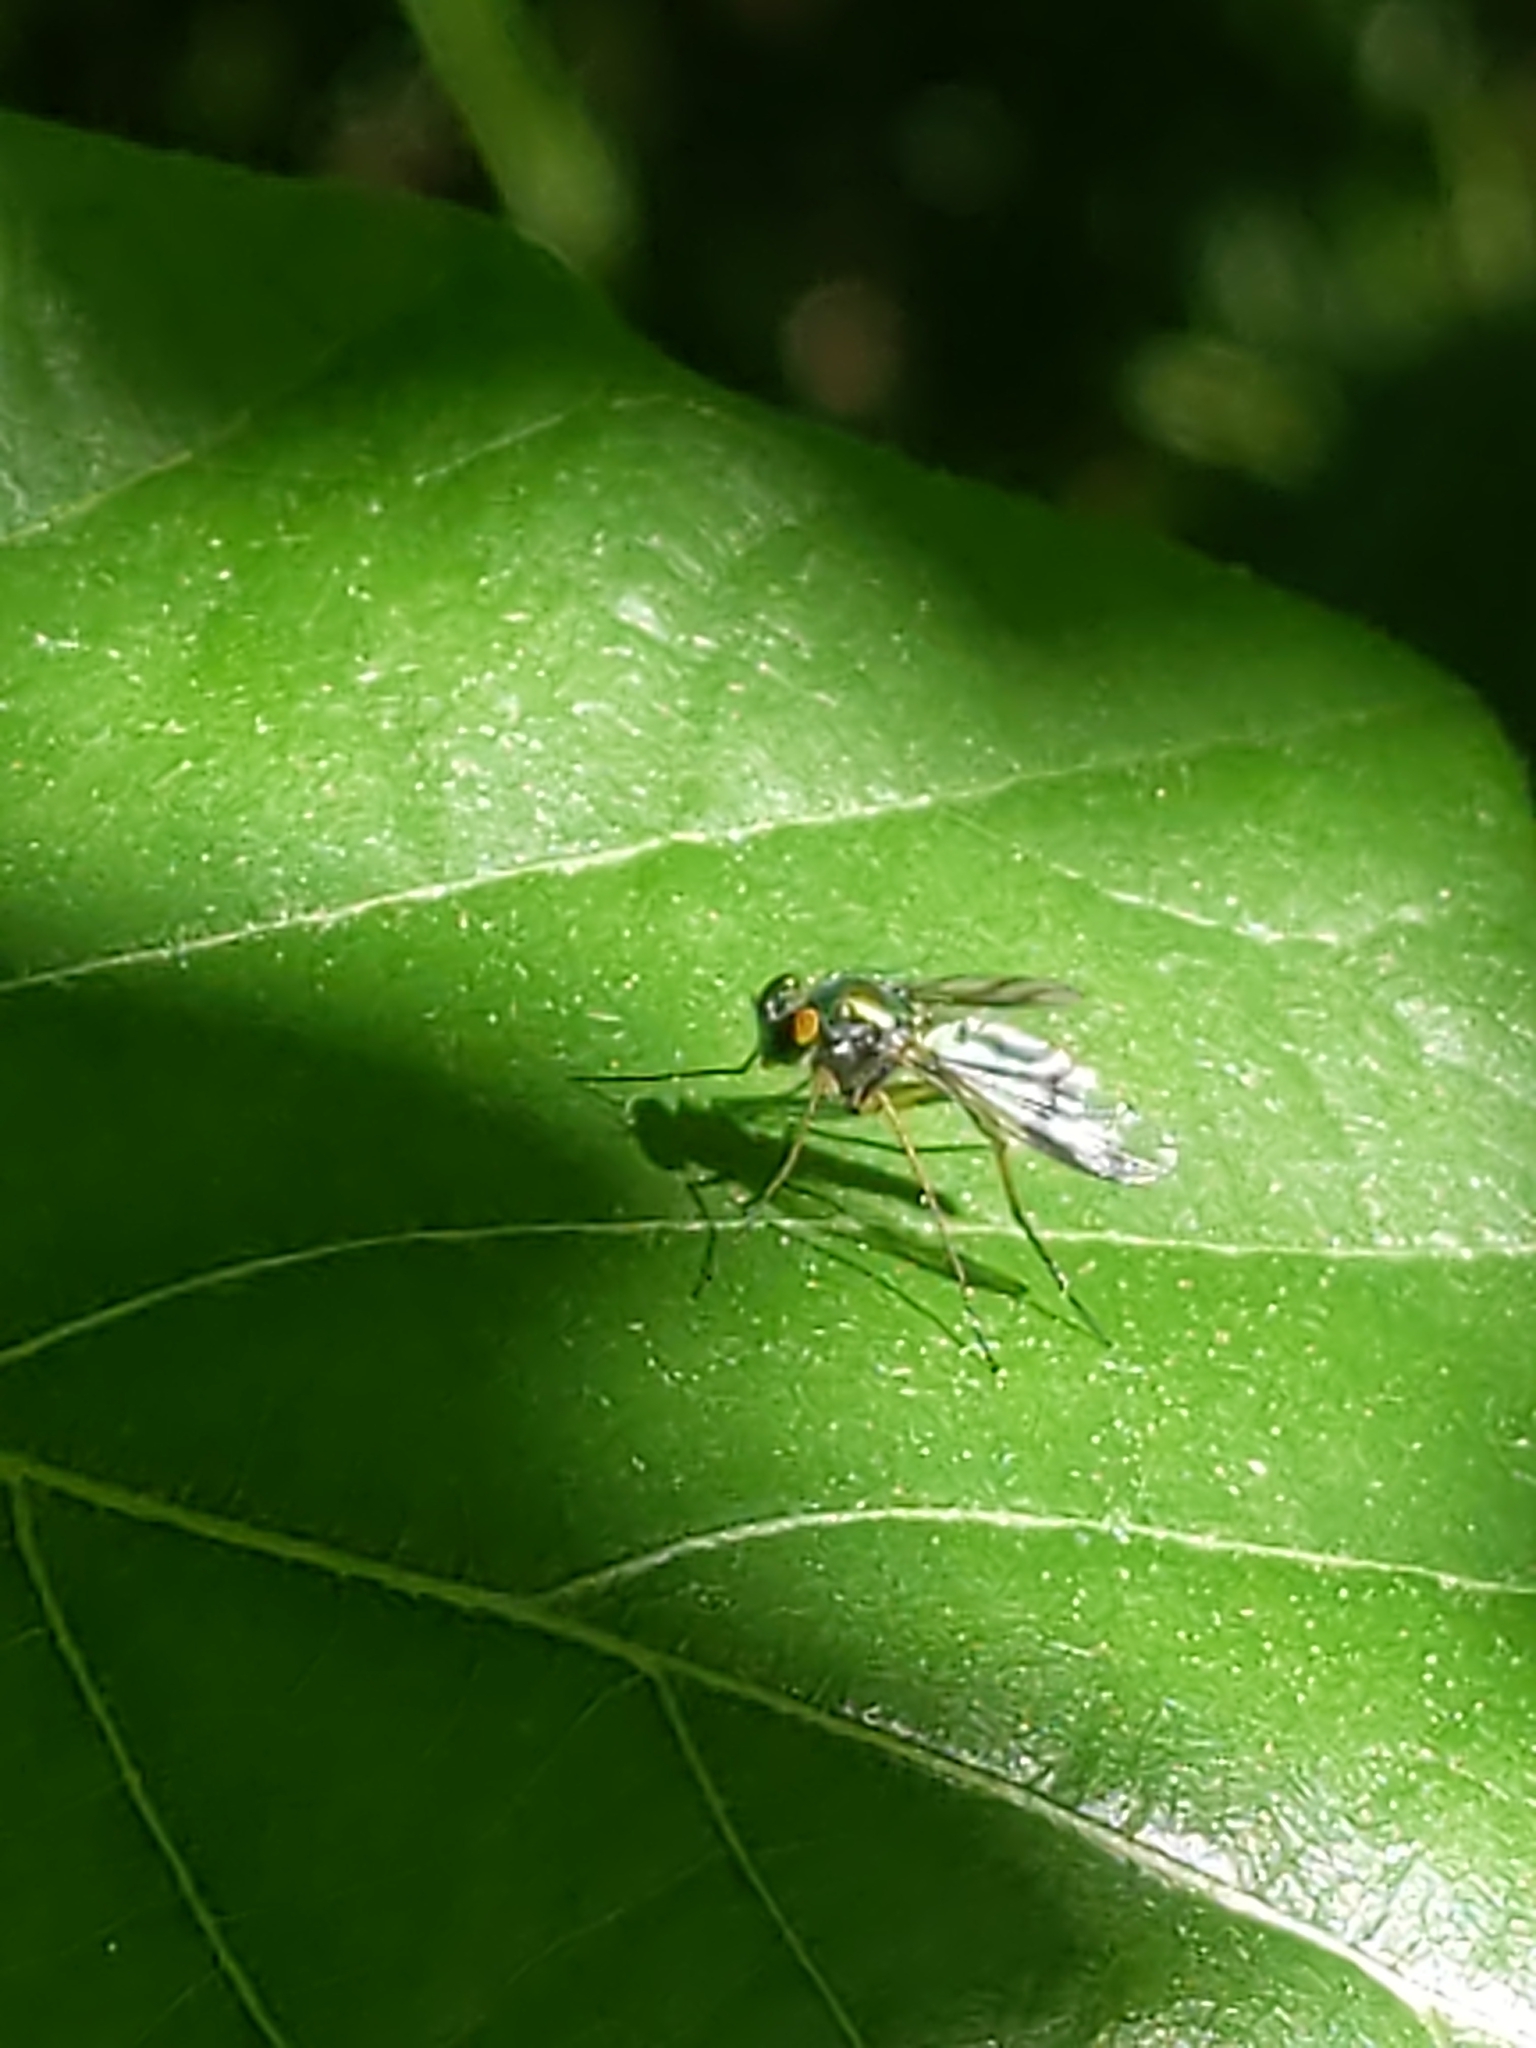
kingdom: Animalia
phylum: Arthropoda
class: Insecta
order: Diptera
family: Dolichopodidae
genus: Condylostylus
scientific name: Condylostylus
